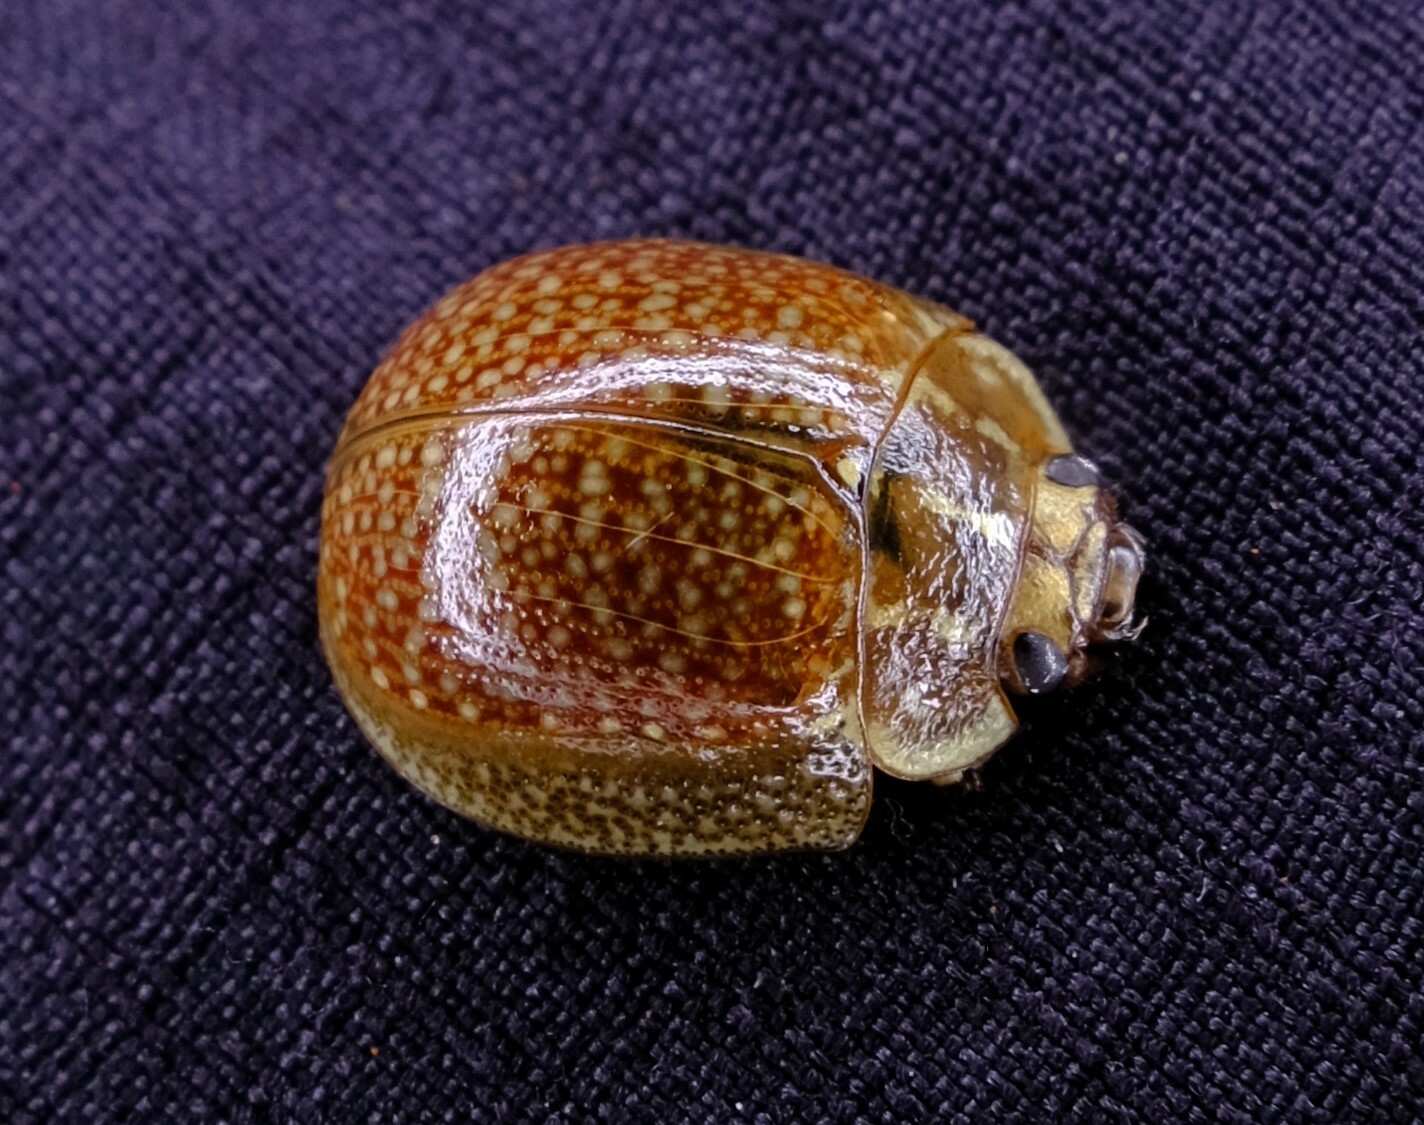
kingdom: Animalia
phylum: Arthropoda
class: Insecta
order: Coleoptera
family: Chrysomelidae
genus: Paropsisterna
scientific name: Paropsisterna cloelia
